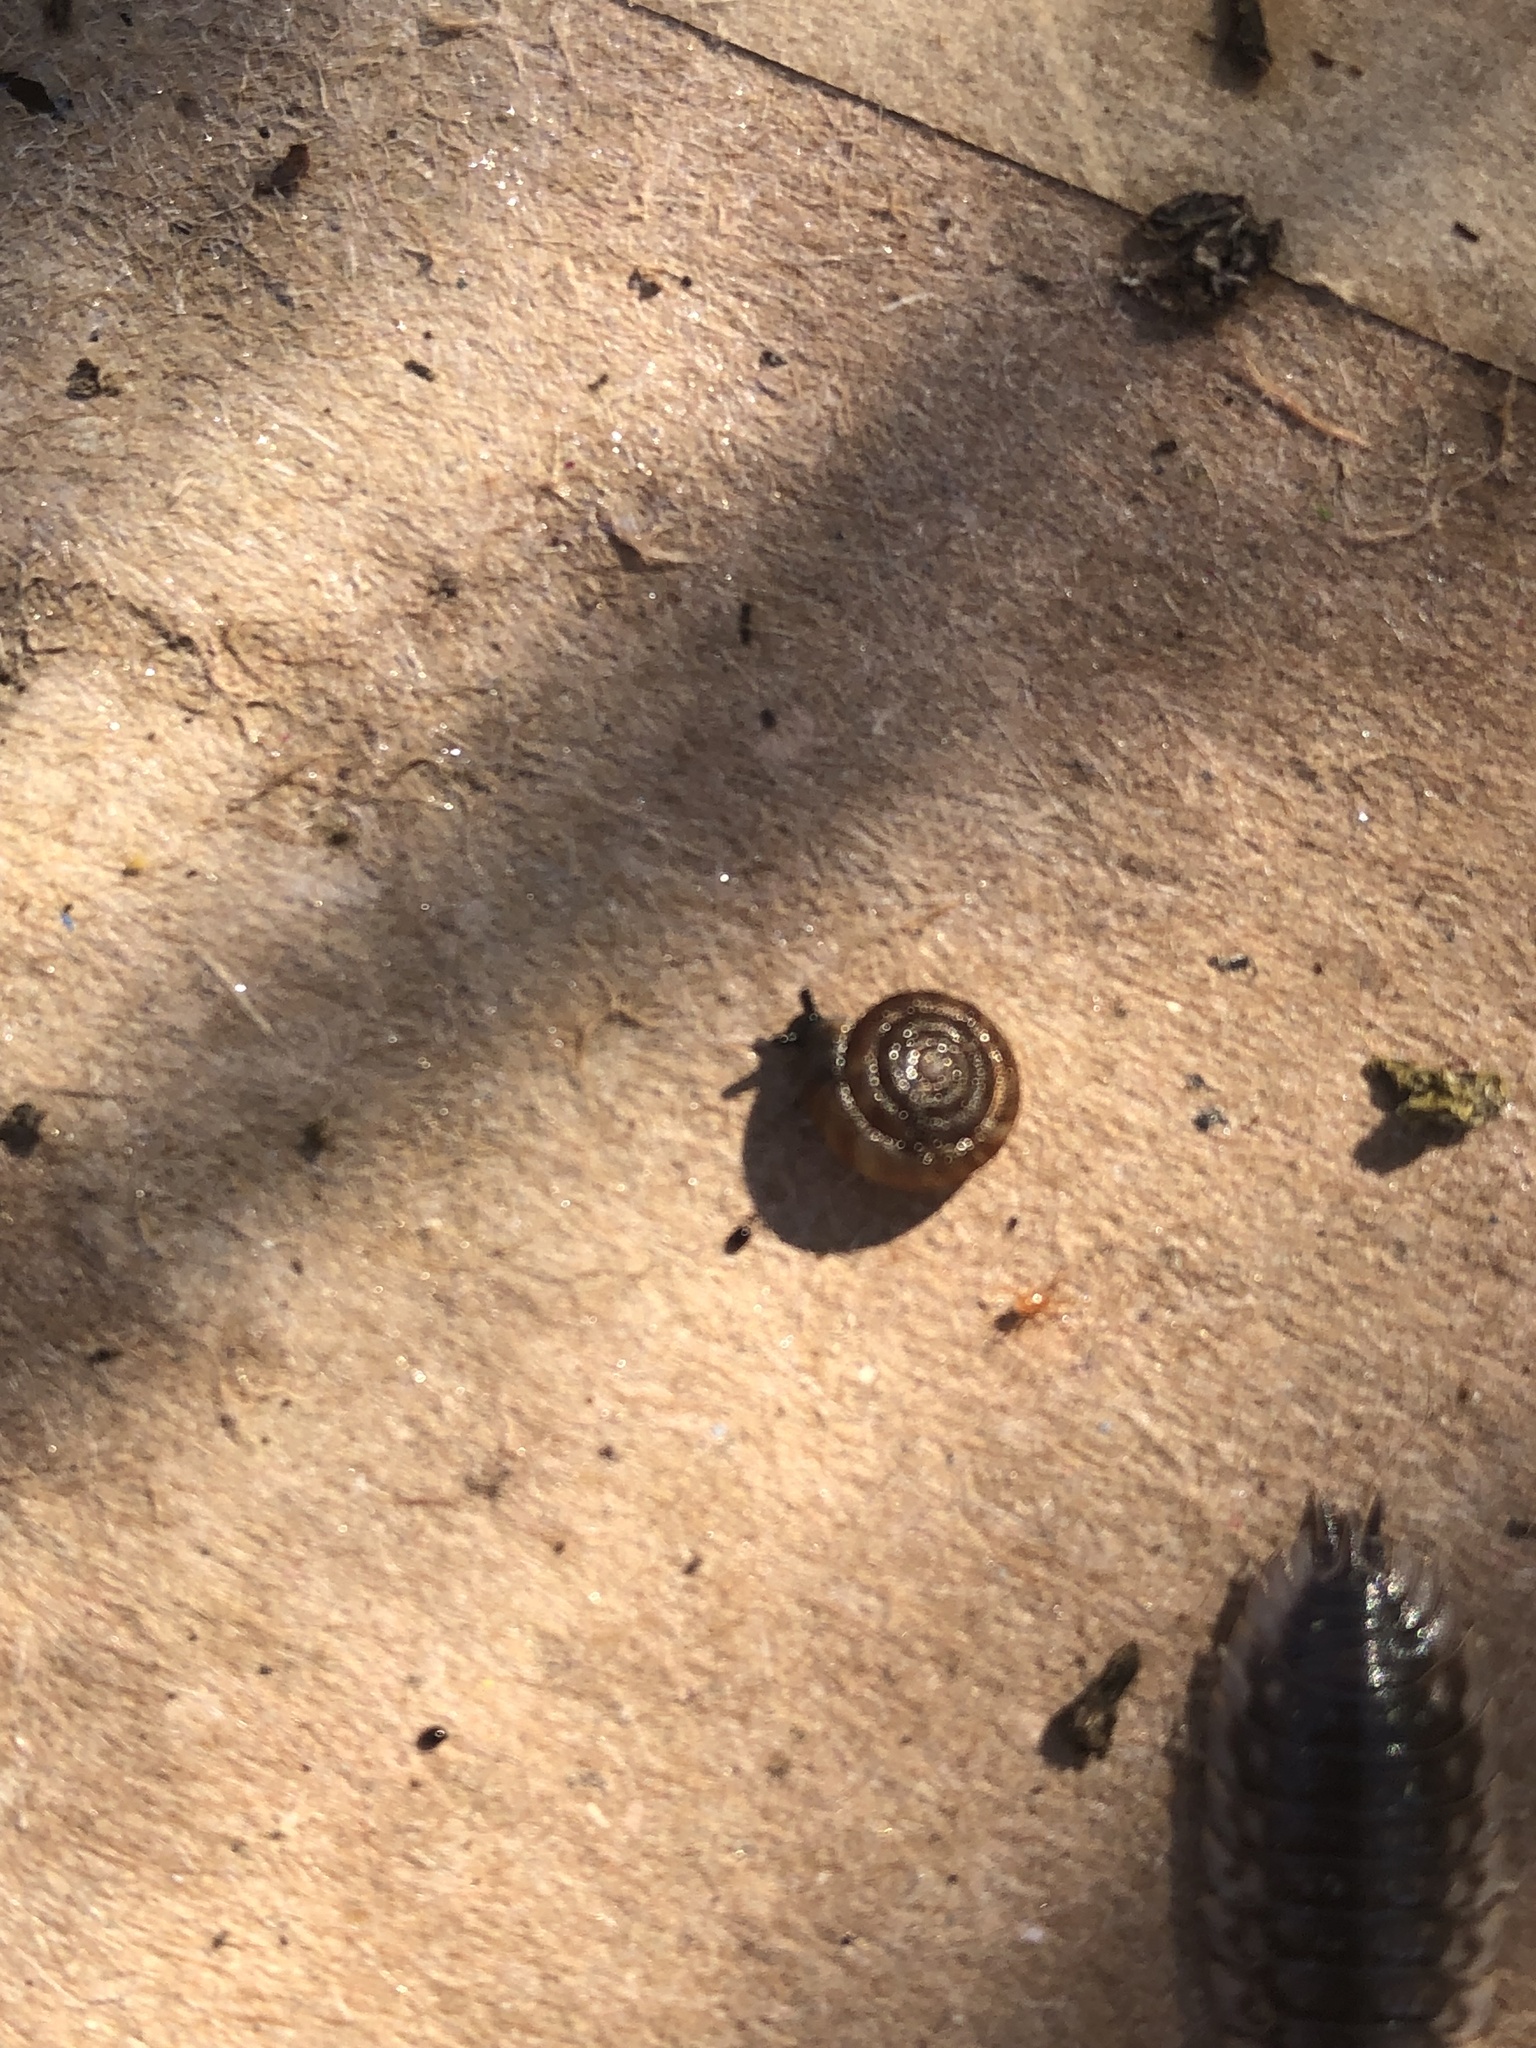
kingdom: Animalia
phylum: Mollusca
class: Gastropoda
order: Stylommatophora
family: Discidae
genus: Discus
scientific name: Discus rotundatus
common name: Rounded snail
